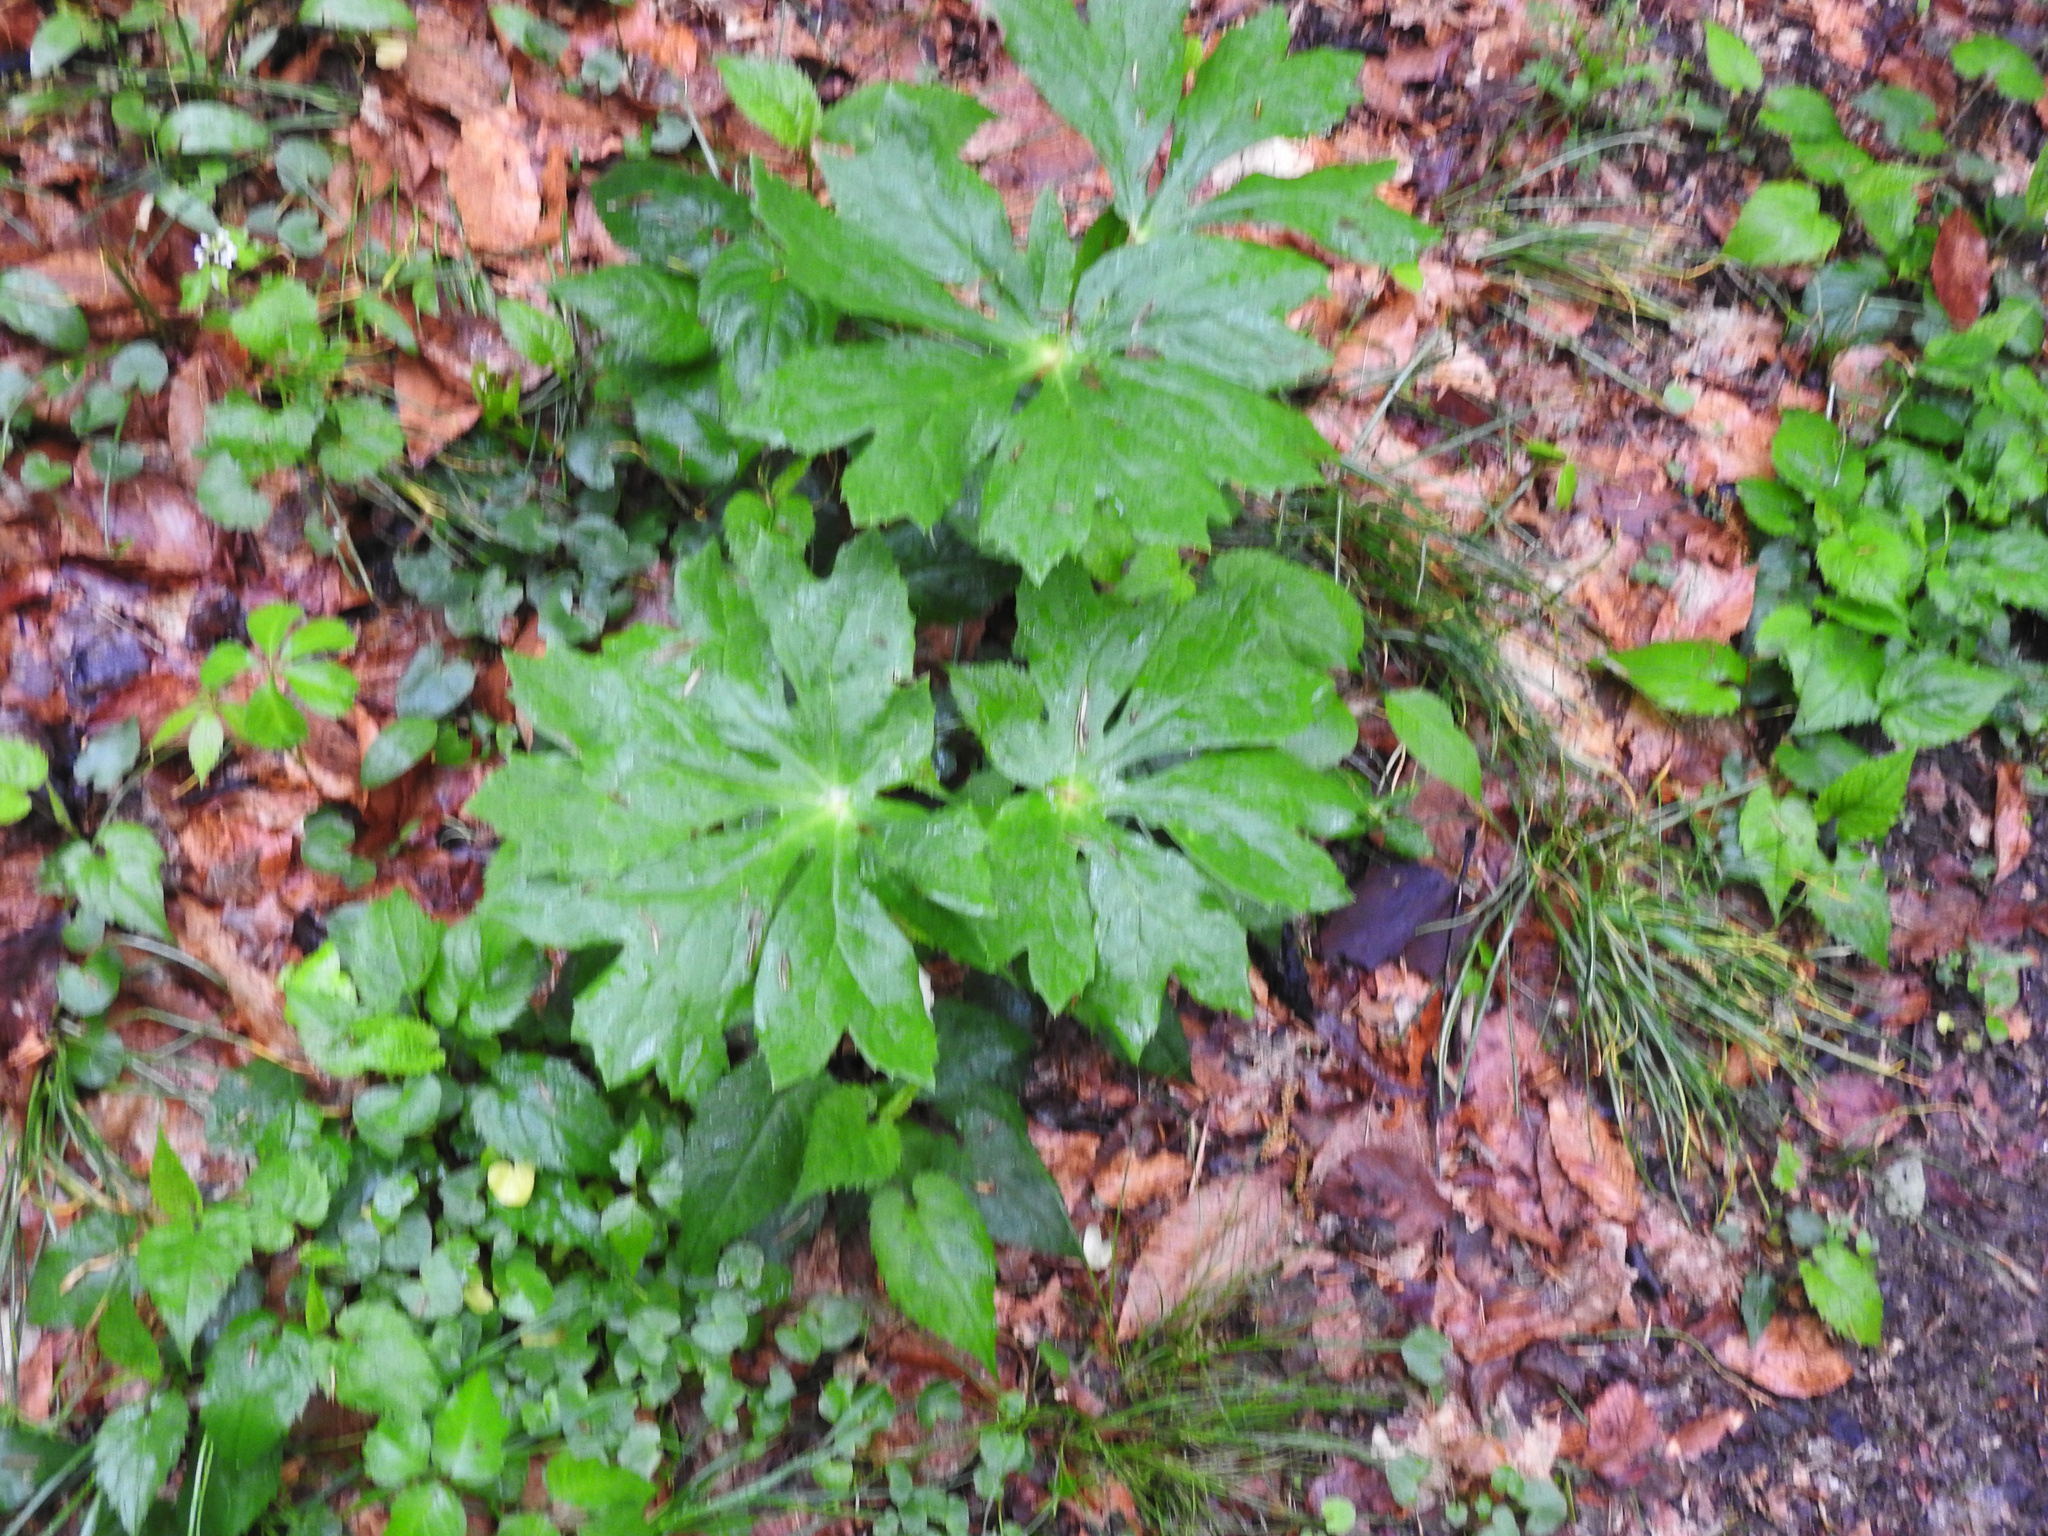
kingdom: Plantae
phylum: Tracheophyta
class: Magnoliopsida
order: Ranunculales
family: Berberidaceae
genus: Podophyllum
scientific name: Podophyllum peltatum
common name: Wild mandrake
